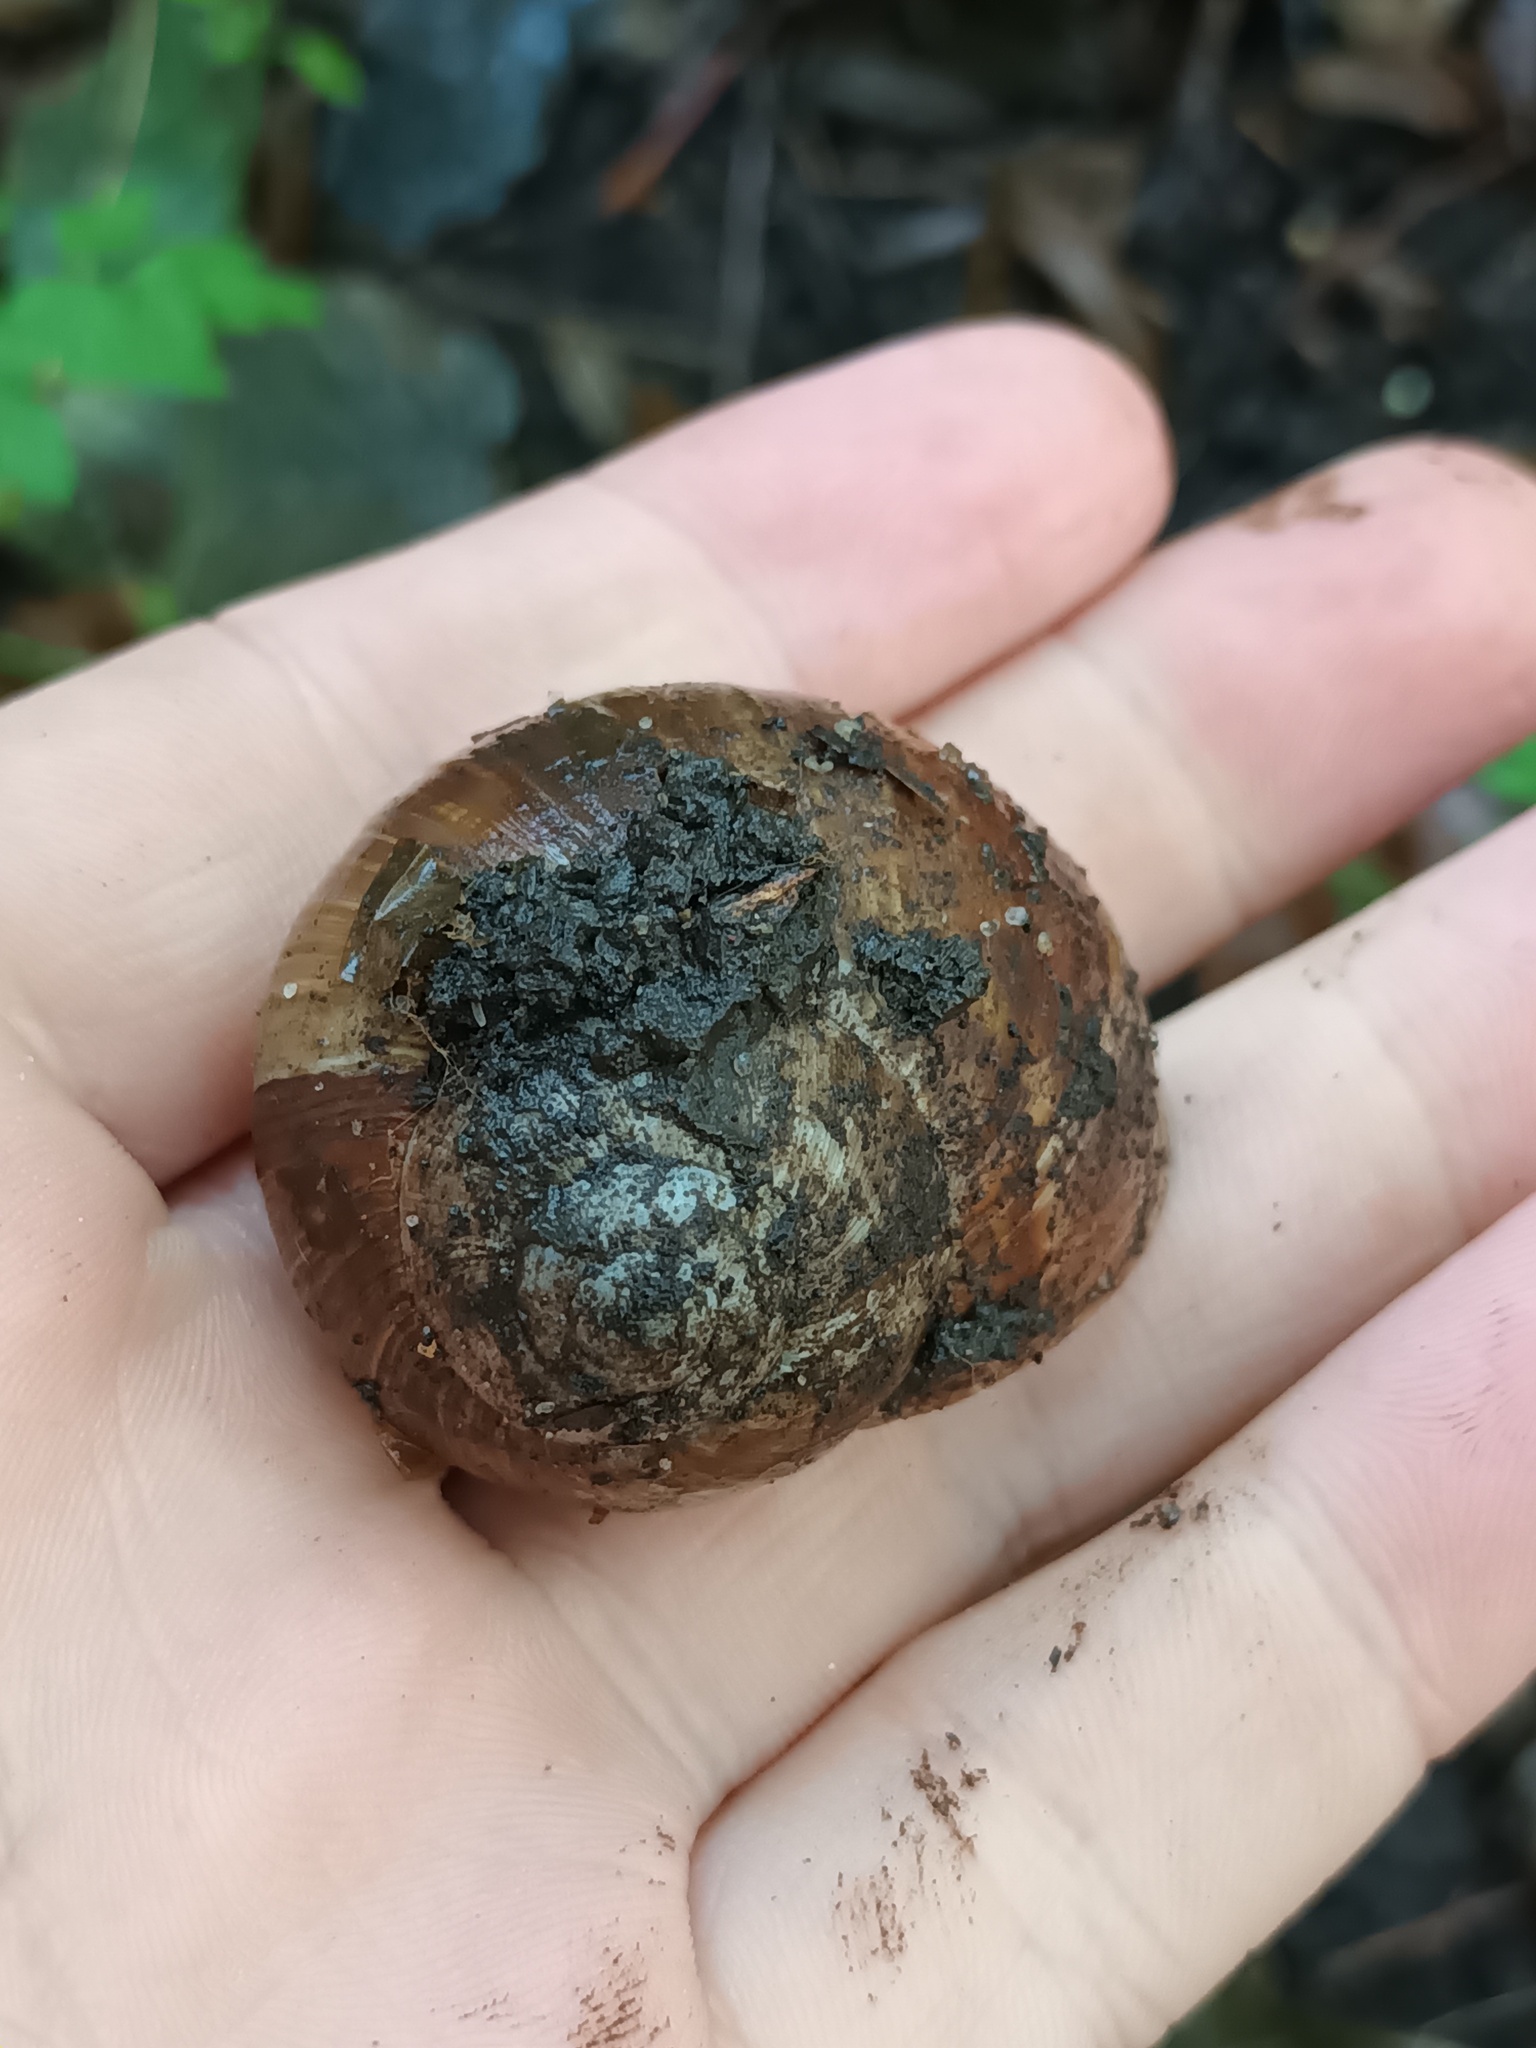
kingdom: Animalia
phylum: Mollusca
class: Gastropoda
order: Stylommatophora
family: Helicidae
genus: Helix
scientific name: Helix pomatia
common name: Roman snail
